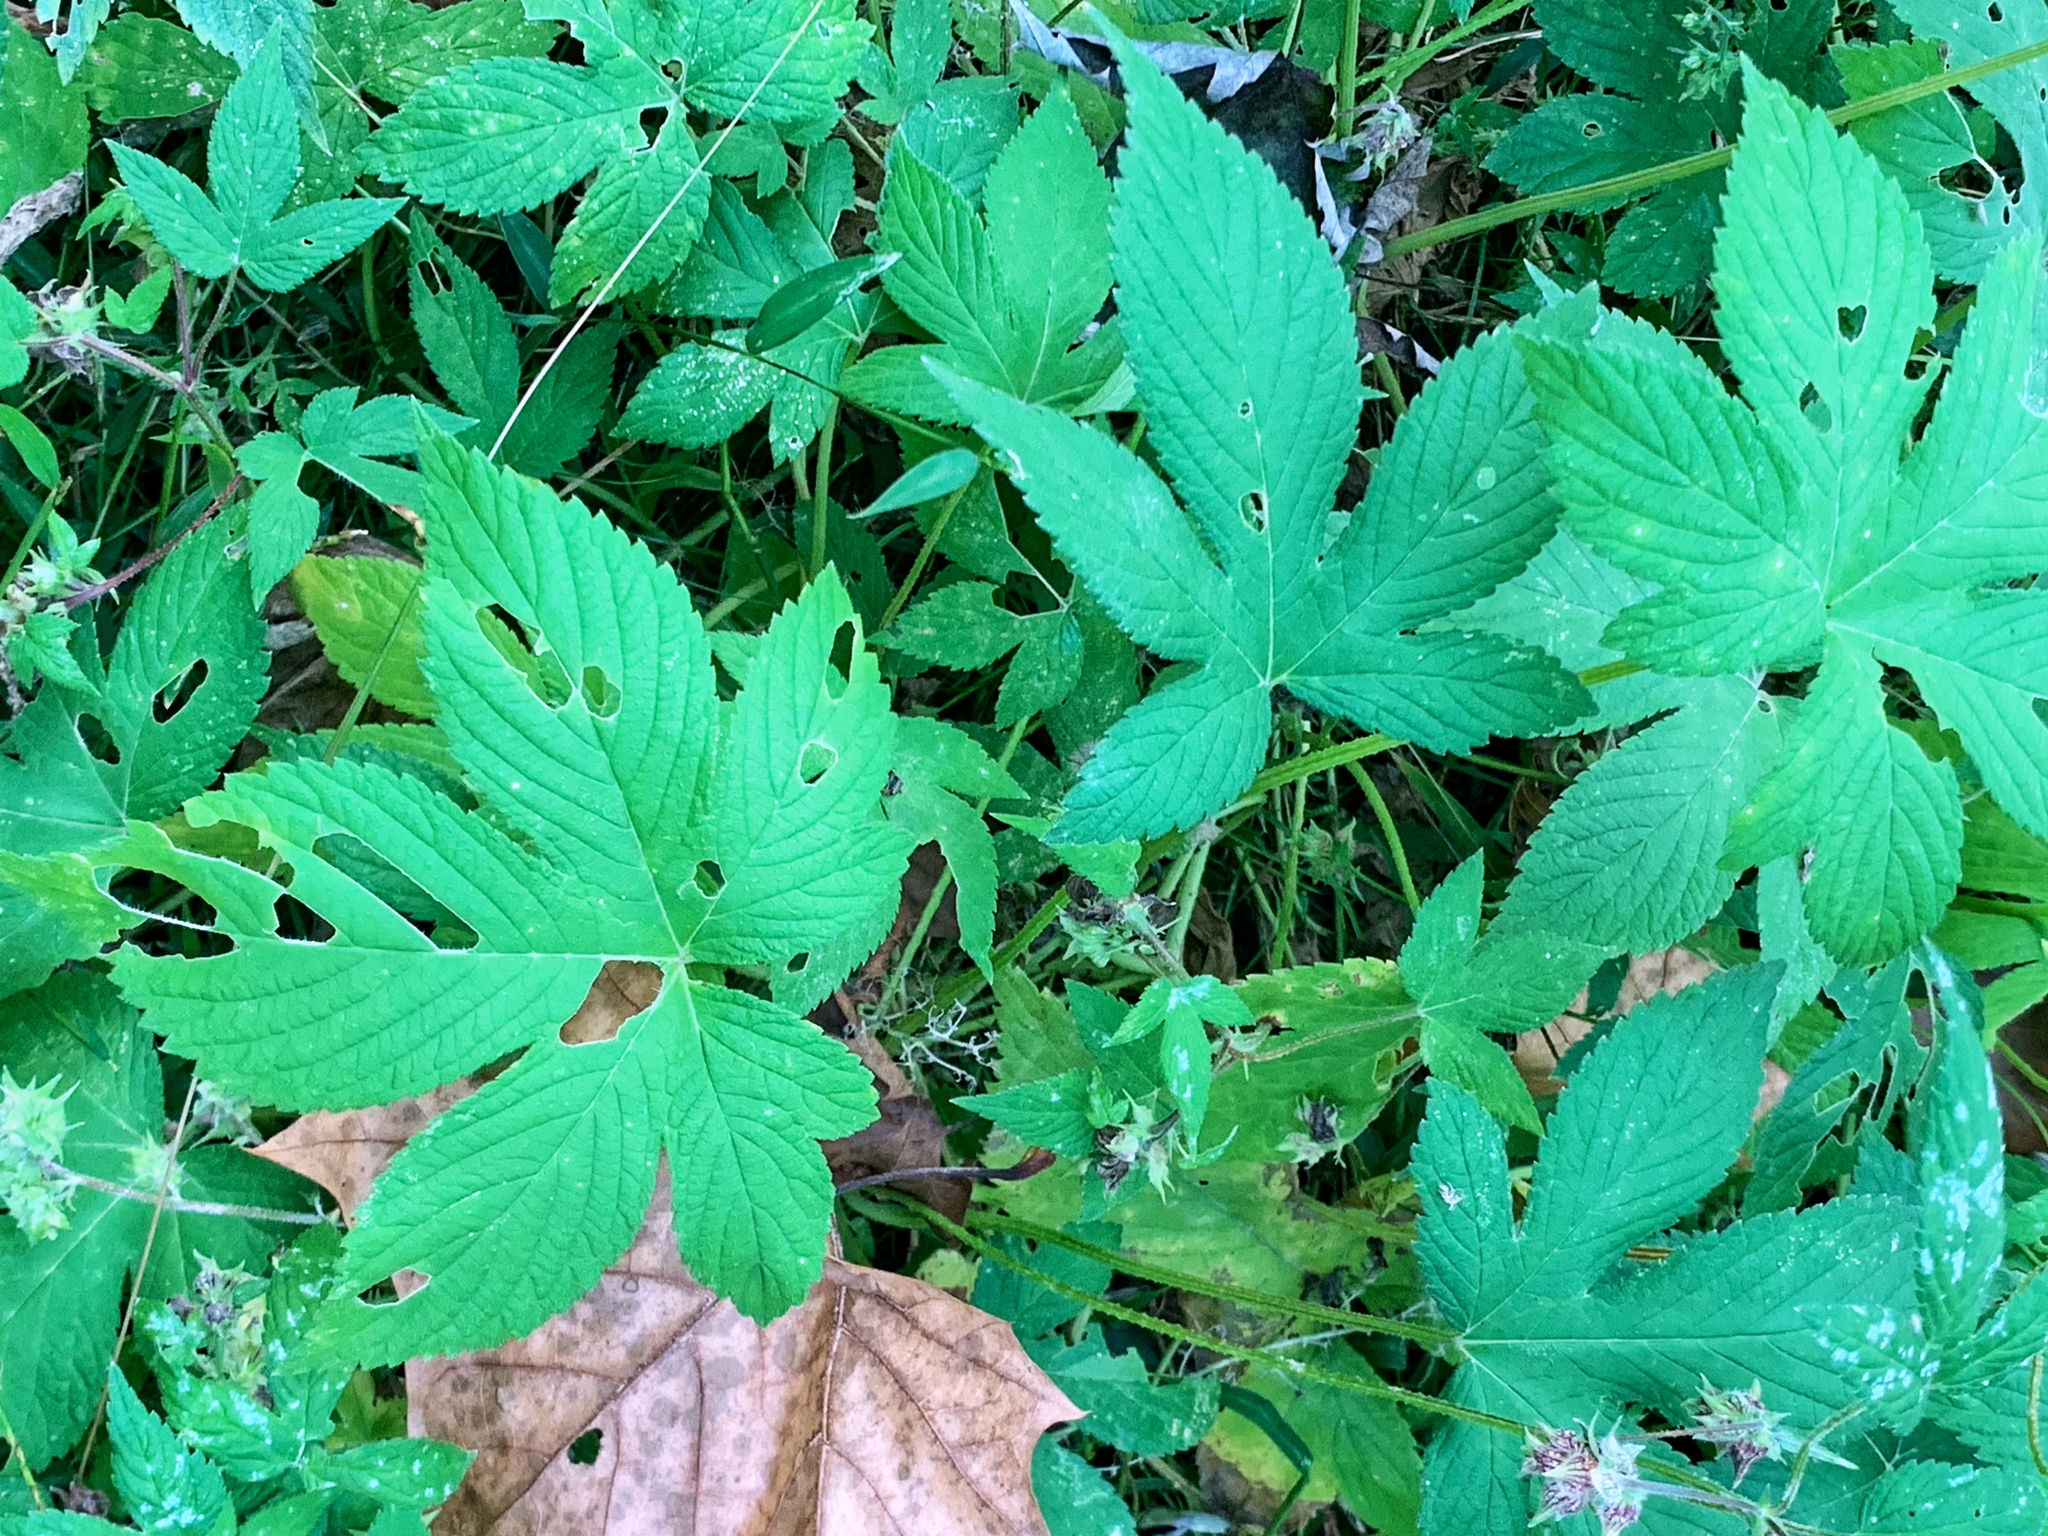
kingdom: Plantae
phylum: Tracheophyta
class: Magnoliopsida
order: Rosales
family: Cannabaceae
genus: Humulus
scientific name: Humulus scandens
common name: Japanese hop
